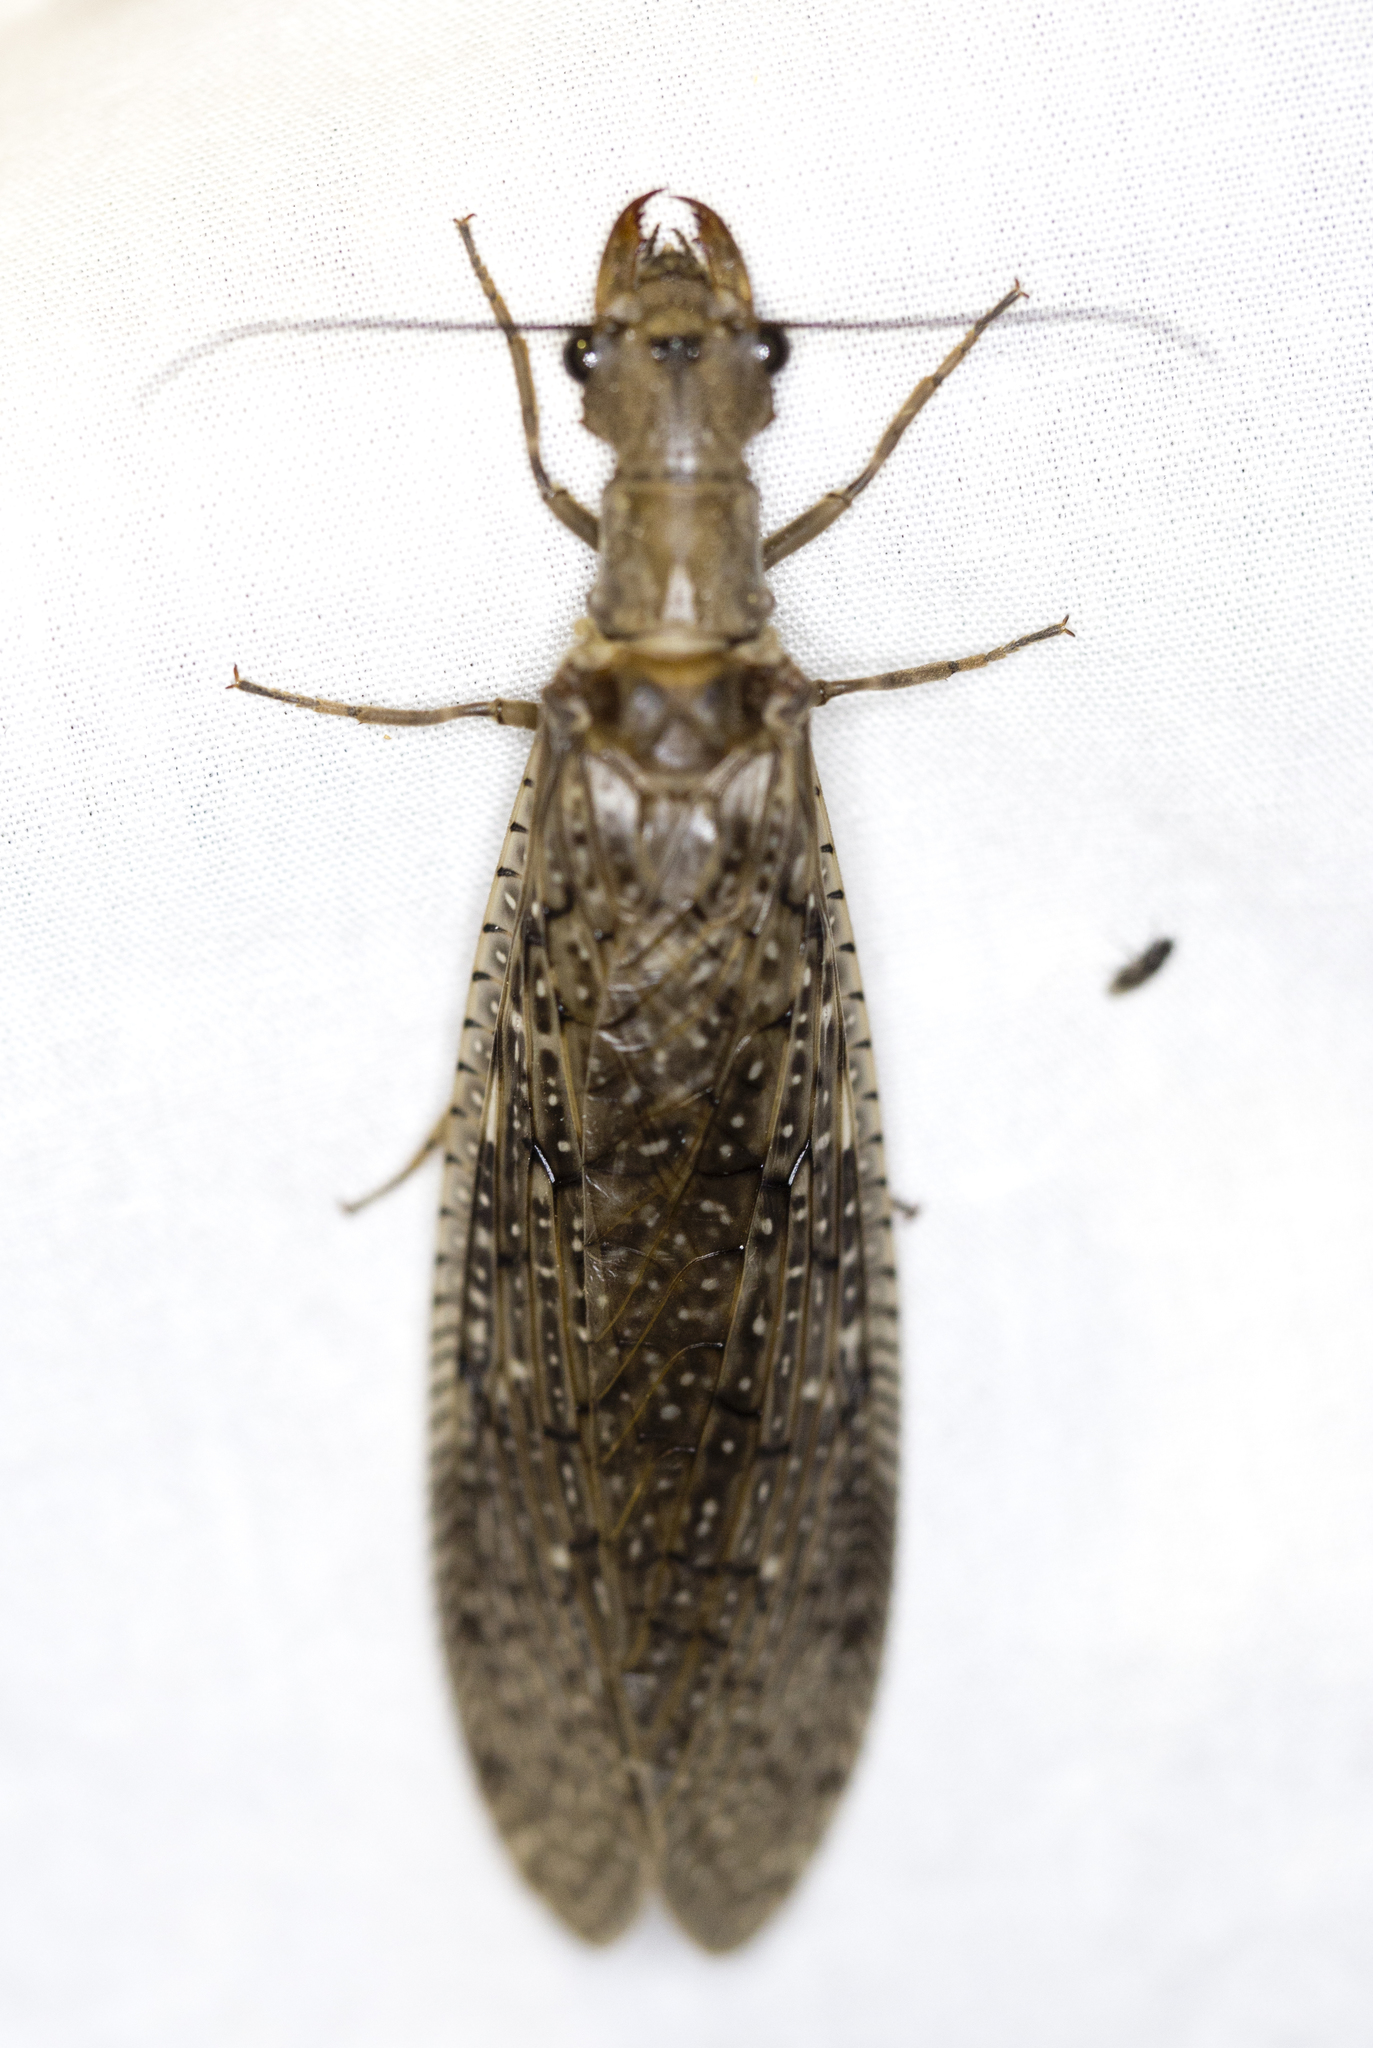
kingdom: Animalia
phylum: Arthropoda
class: Insecta
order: Megaloptera
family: Corydalidae
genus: Corydalus
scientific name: Corydalus texanus
